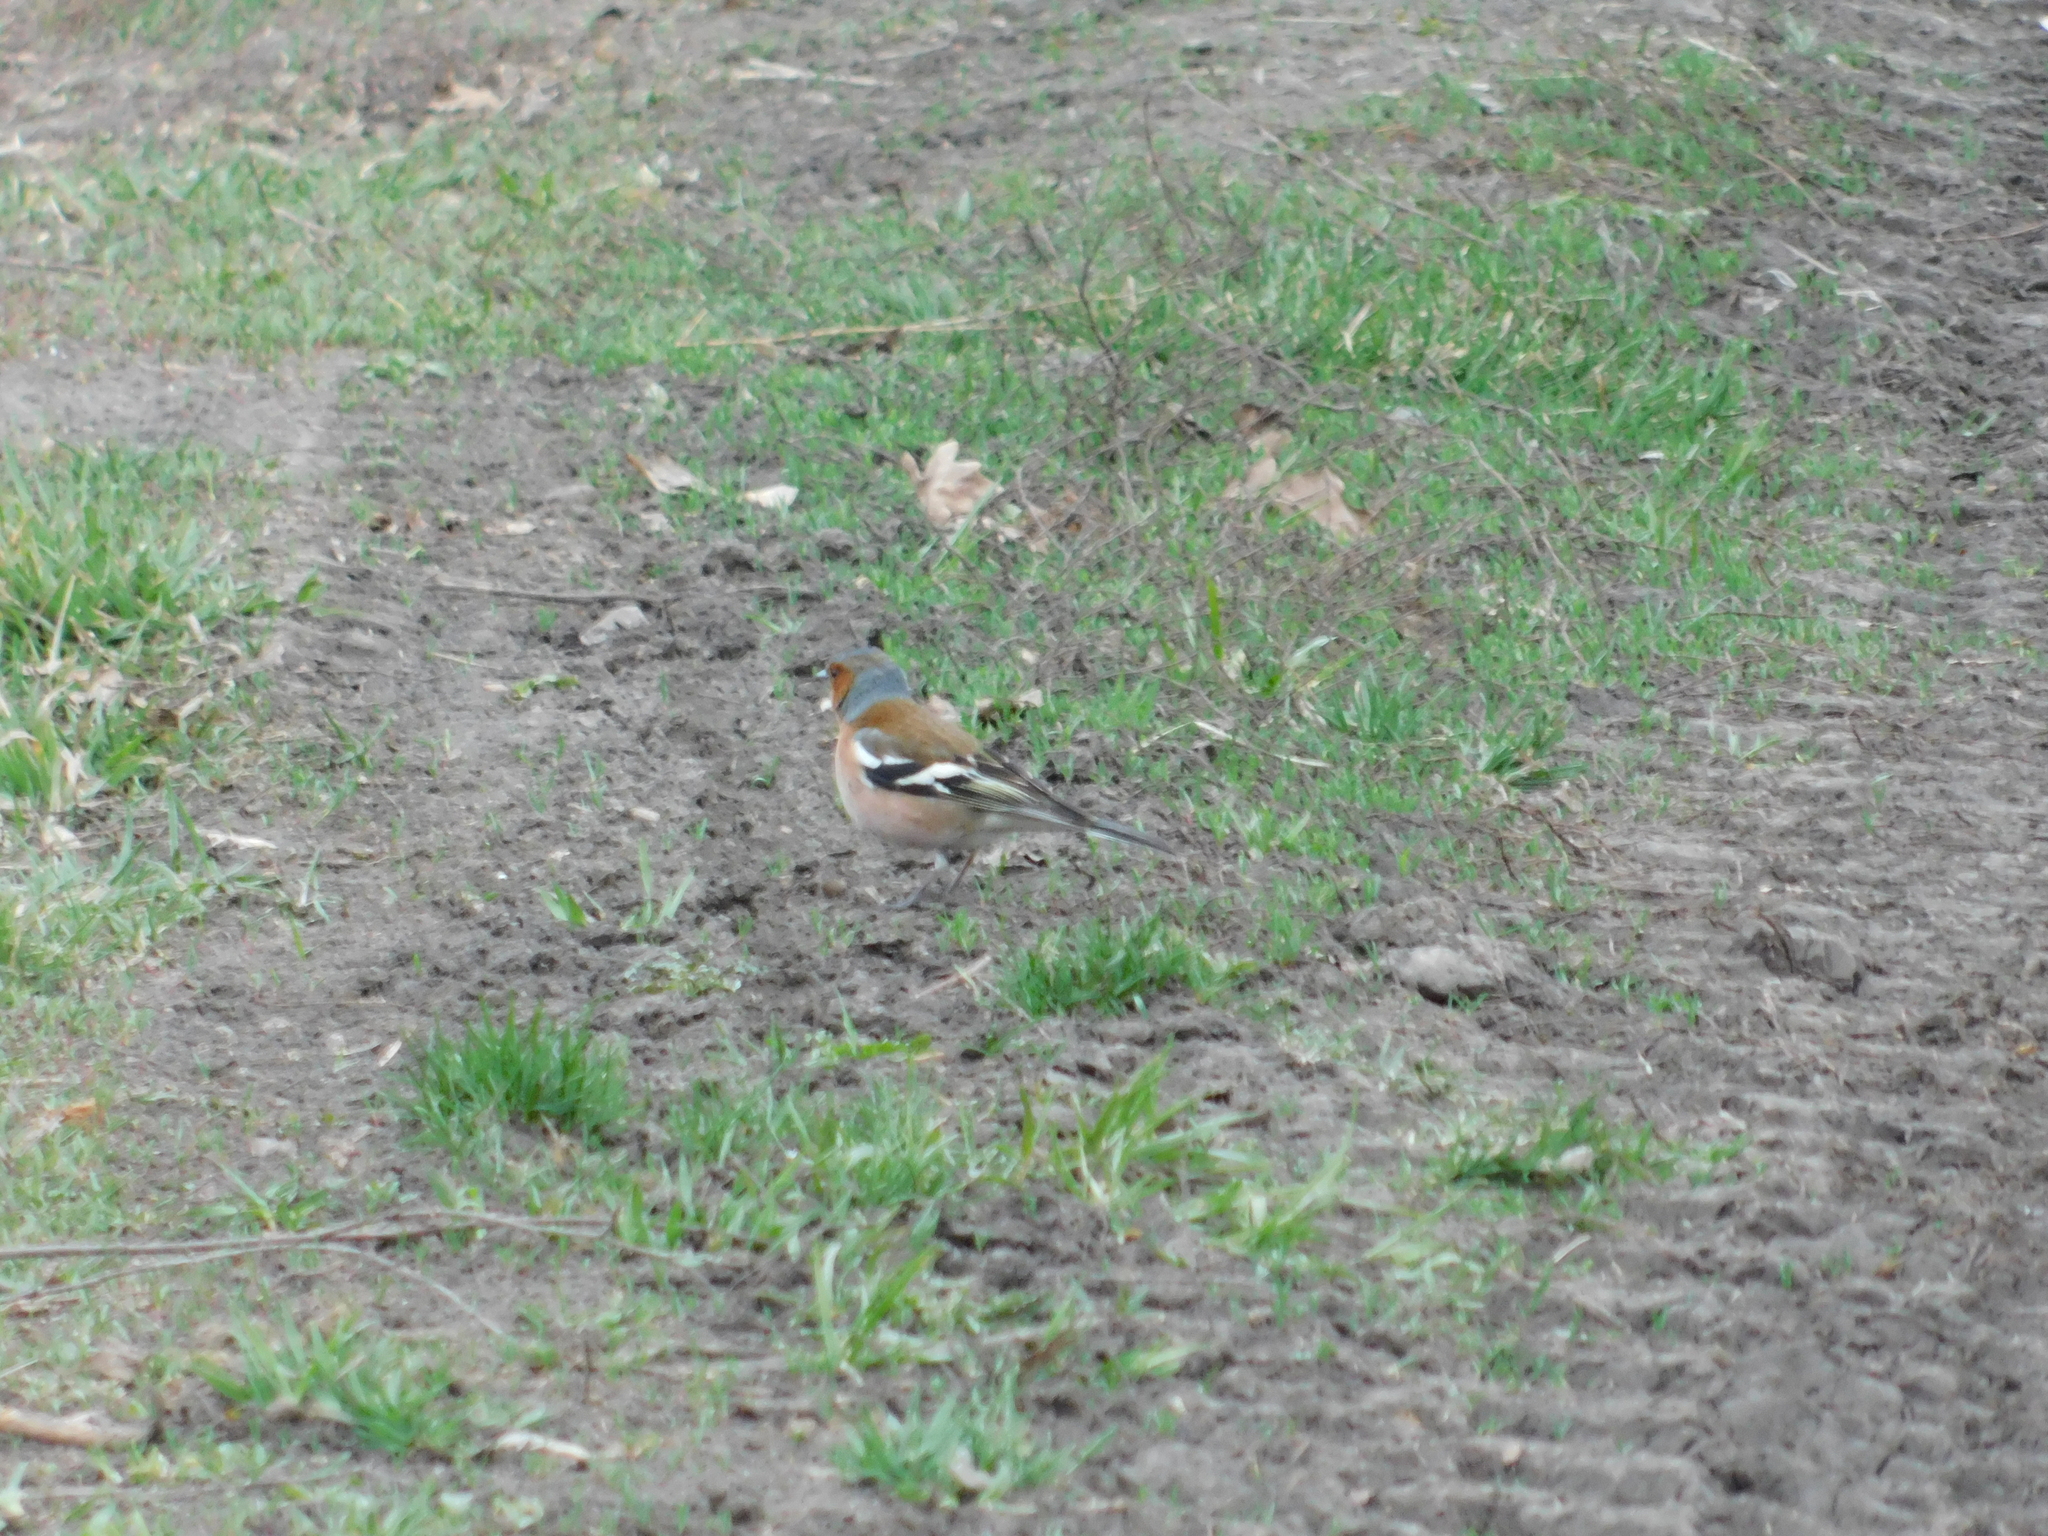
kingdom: Animalia
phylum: Chordata
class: Aves
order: Passeriformes
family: Fringillidae
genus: Fringilla
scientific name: Fringilla coelebs
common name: Common chaffinch
